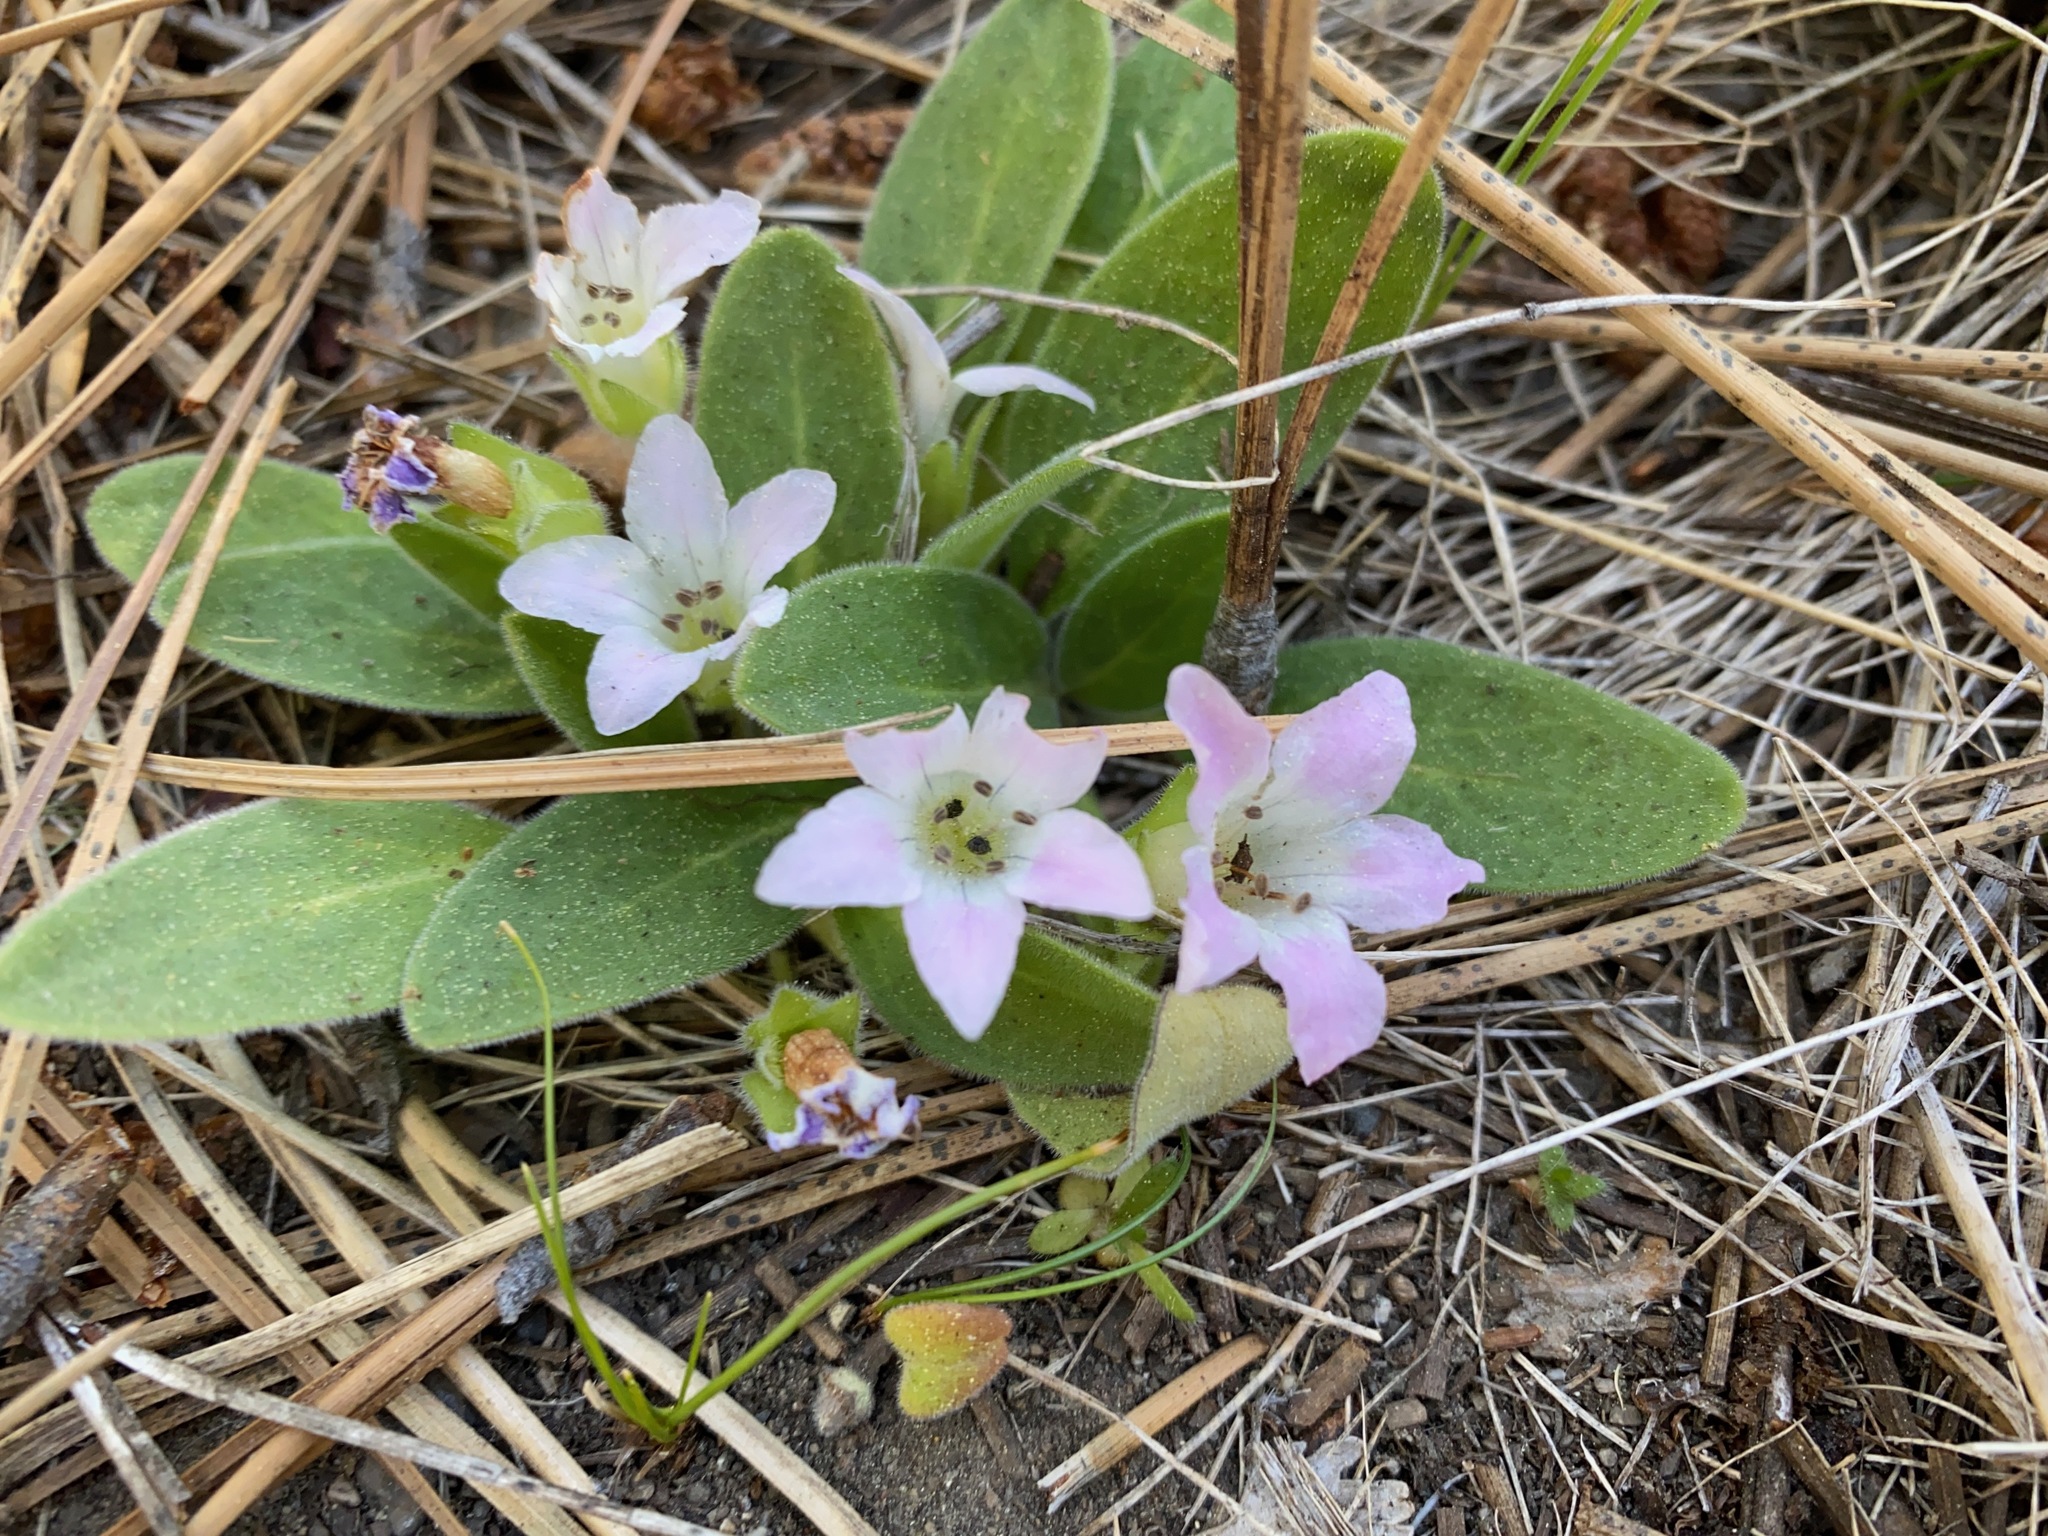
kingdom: Plantae
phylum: Tracheophyta
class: Magnoliopsida
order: Boraginales
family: Hydrophyllaceae
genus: Hesperochiron
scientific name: Hesperochiron californicus
